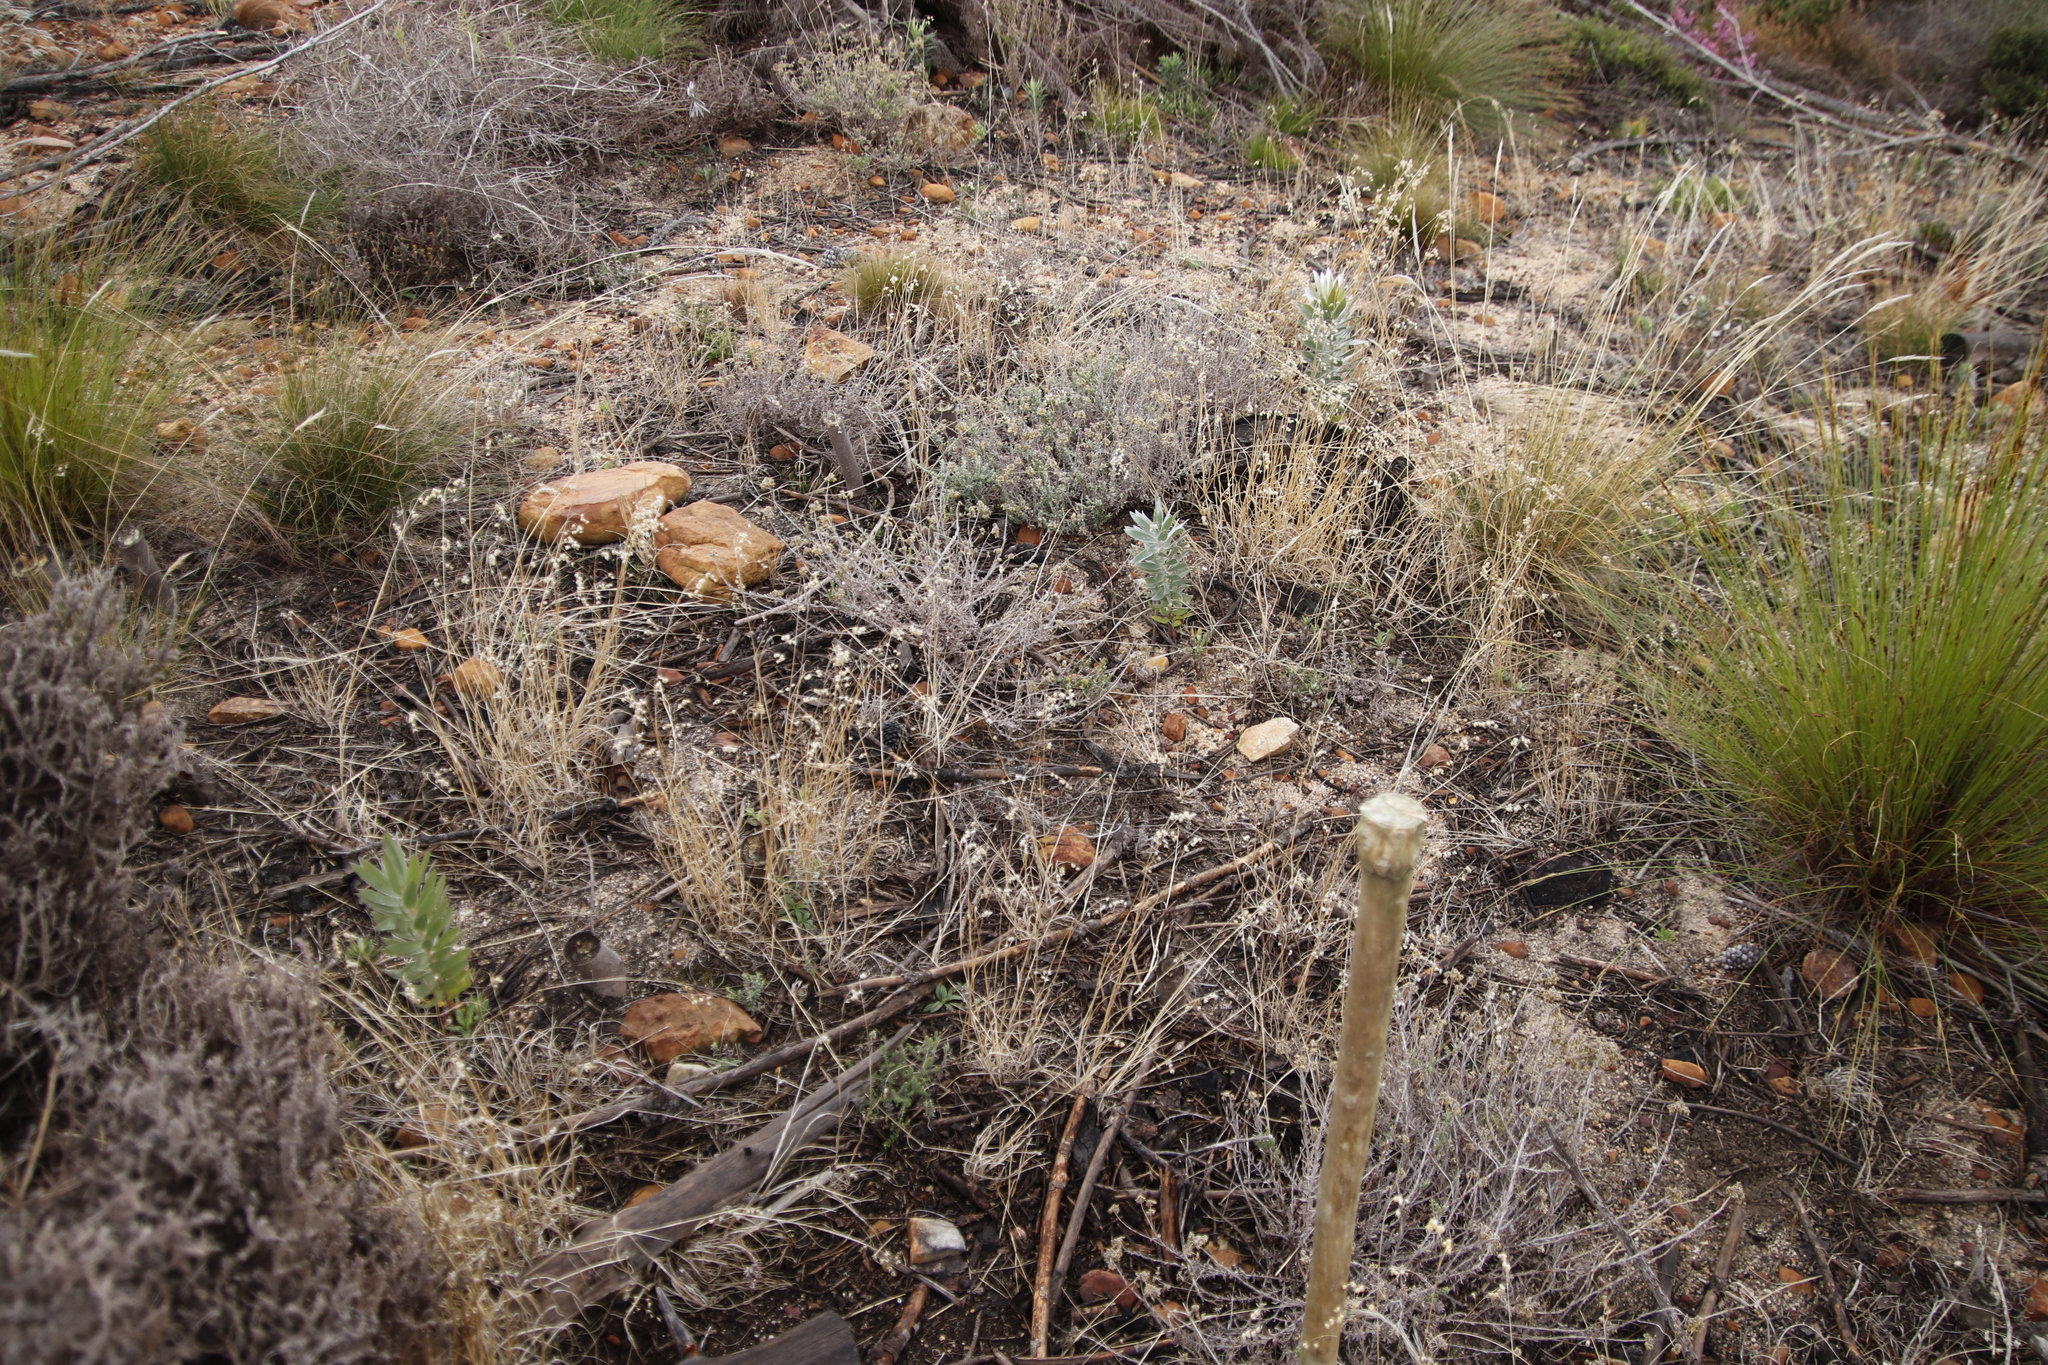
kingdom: Plantae
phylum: Tracheophyta
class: Magnoliopsida
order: Proteales
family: Proteaceae
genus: Leucadendron
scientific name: Leucadendron argenteum
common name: Cape silver tree
